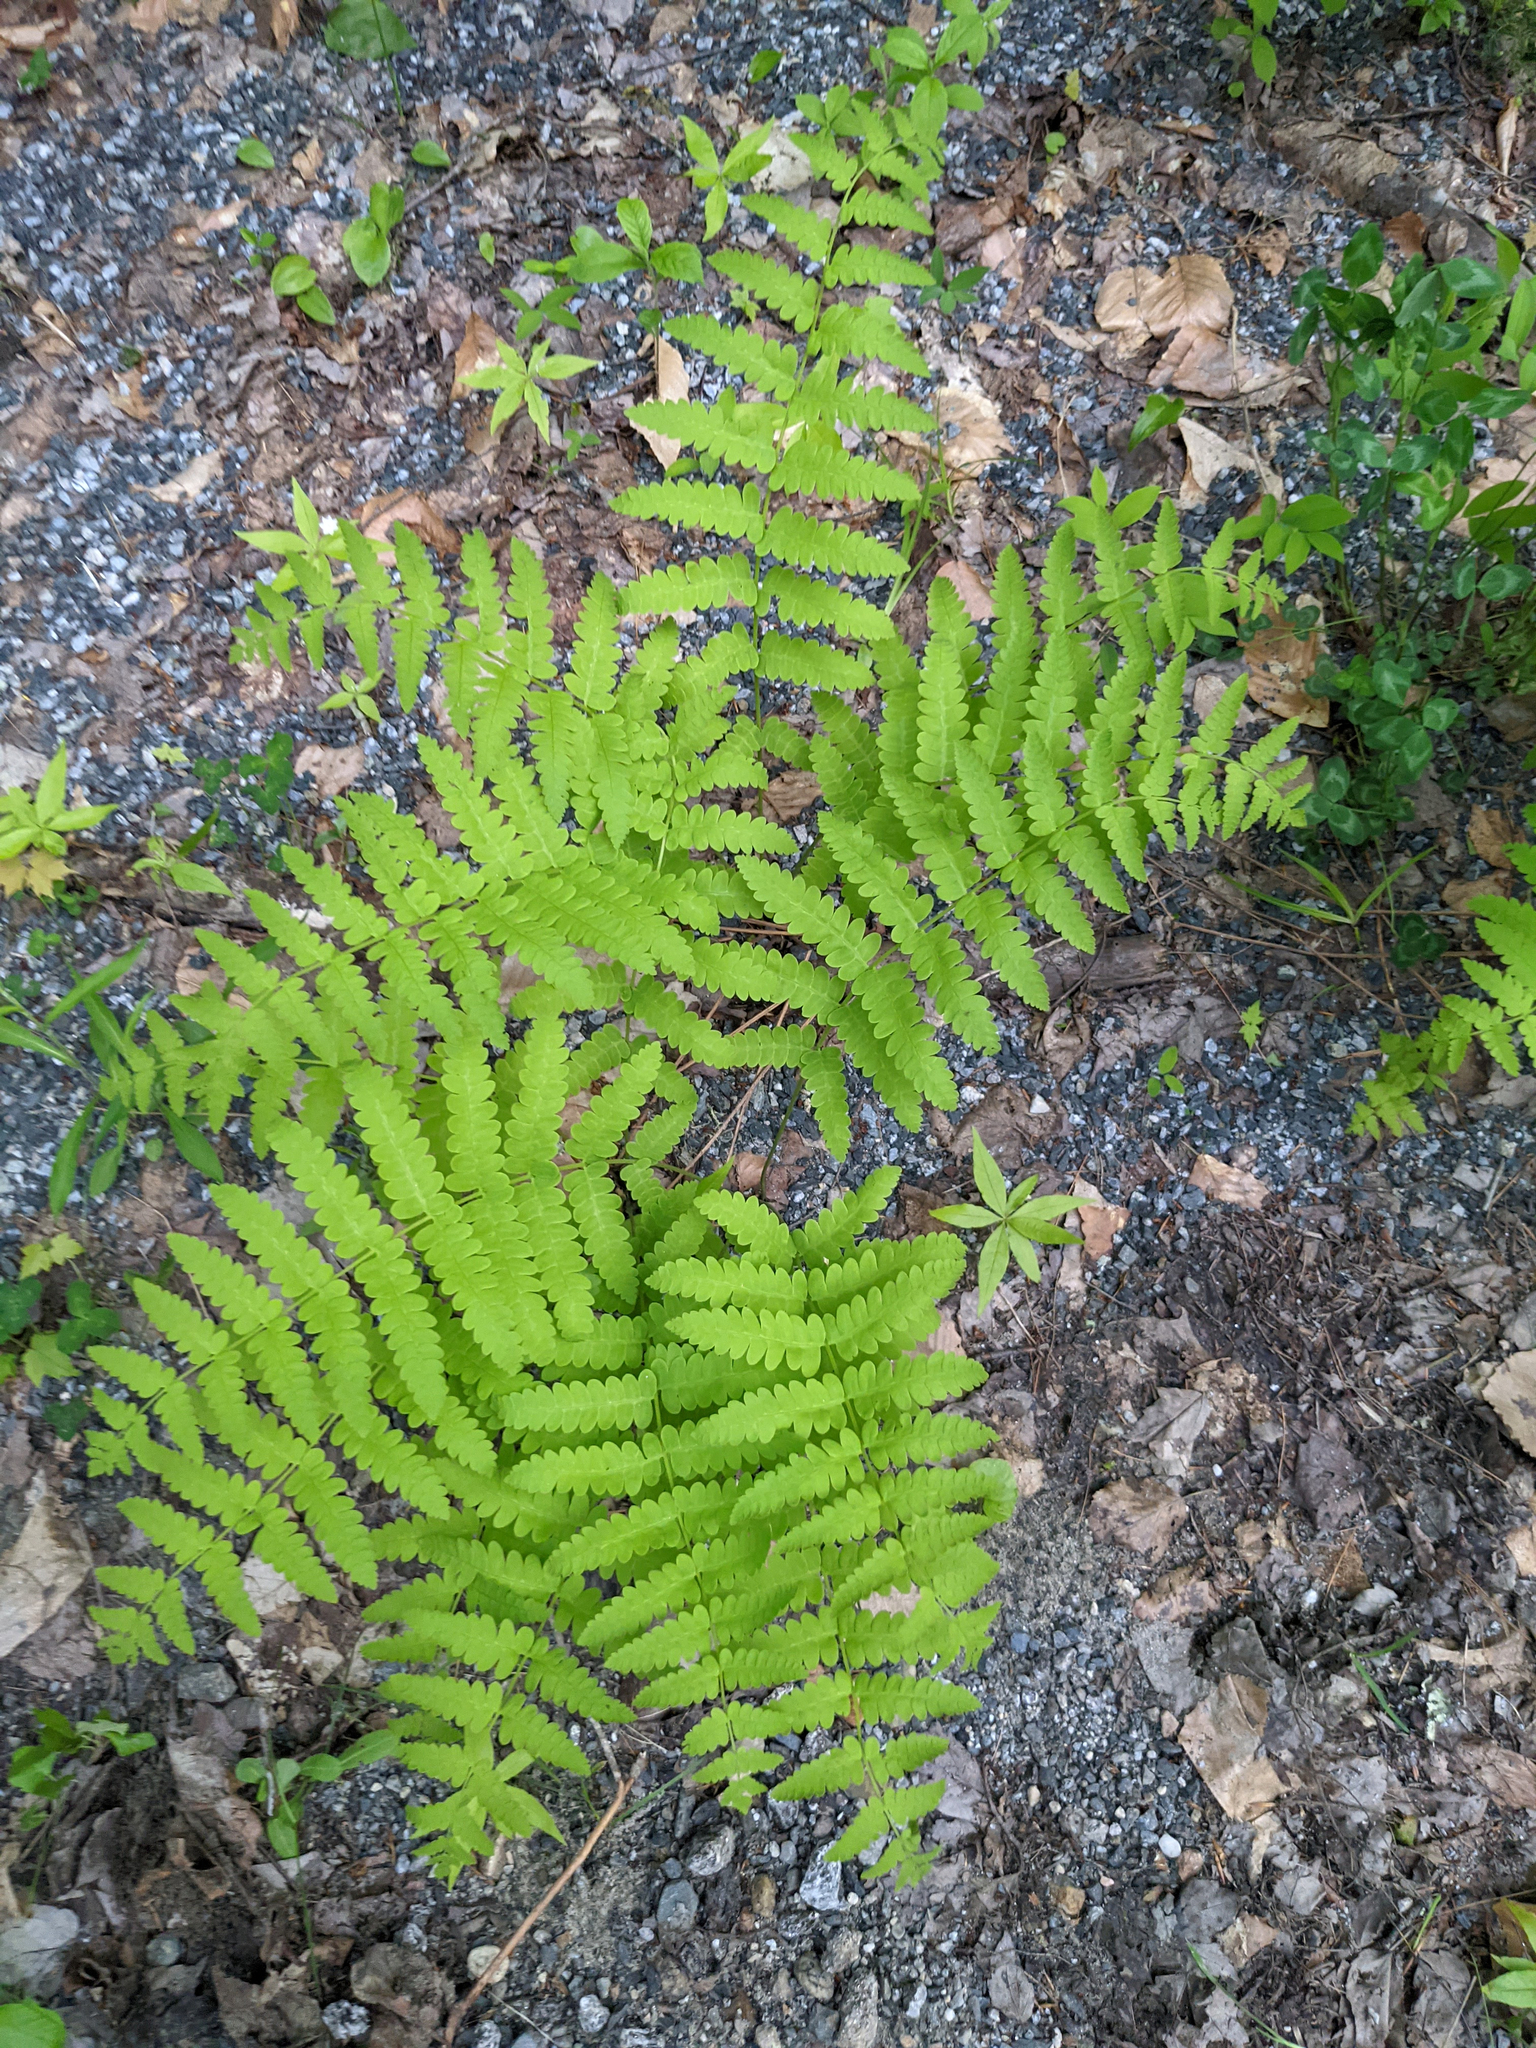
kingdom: Plantae
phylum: Tracheophyta
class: Polypodiopsida
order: Osmundales
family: Osmundaceae
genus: Claytosmunda
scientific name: Claytosmunda claytoniana
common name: Clayton's fern
